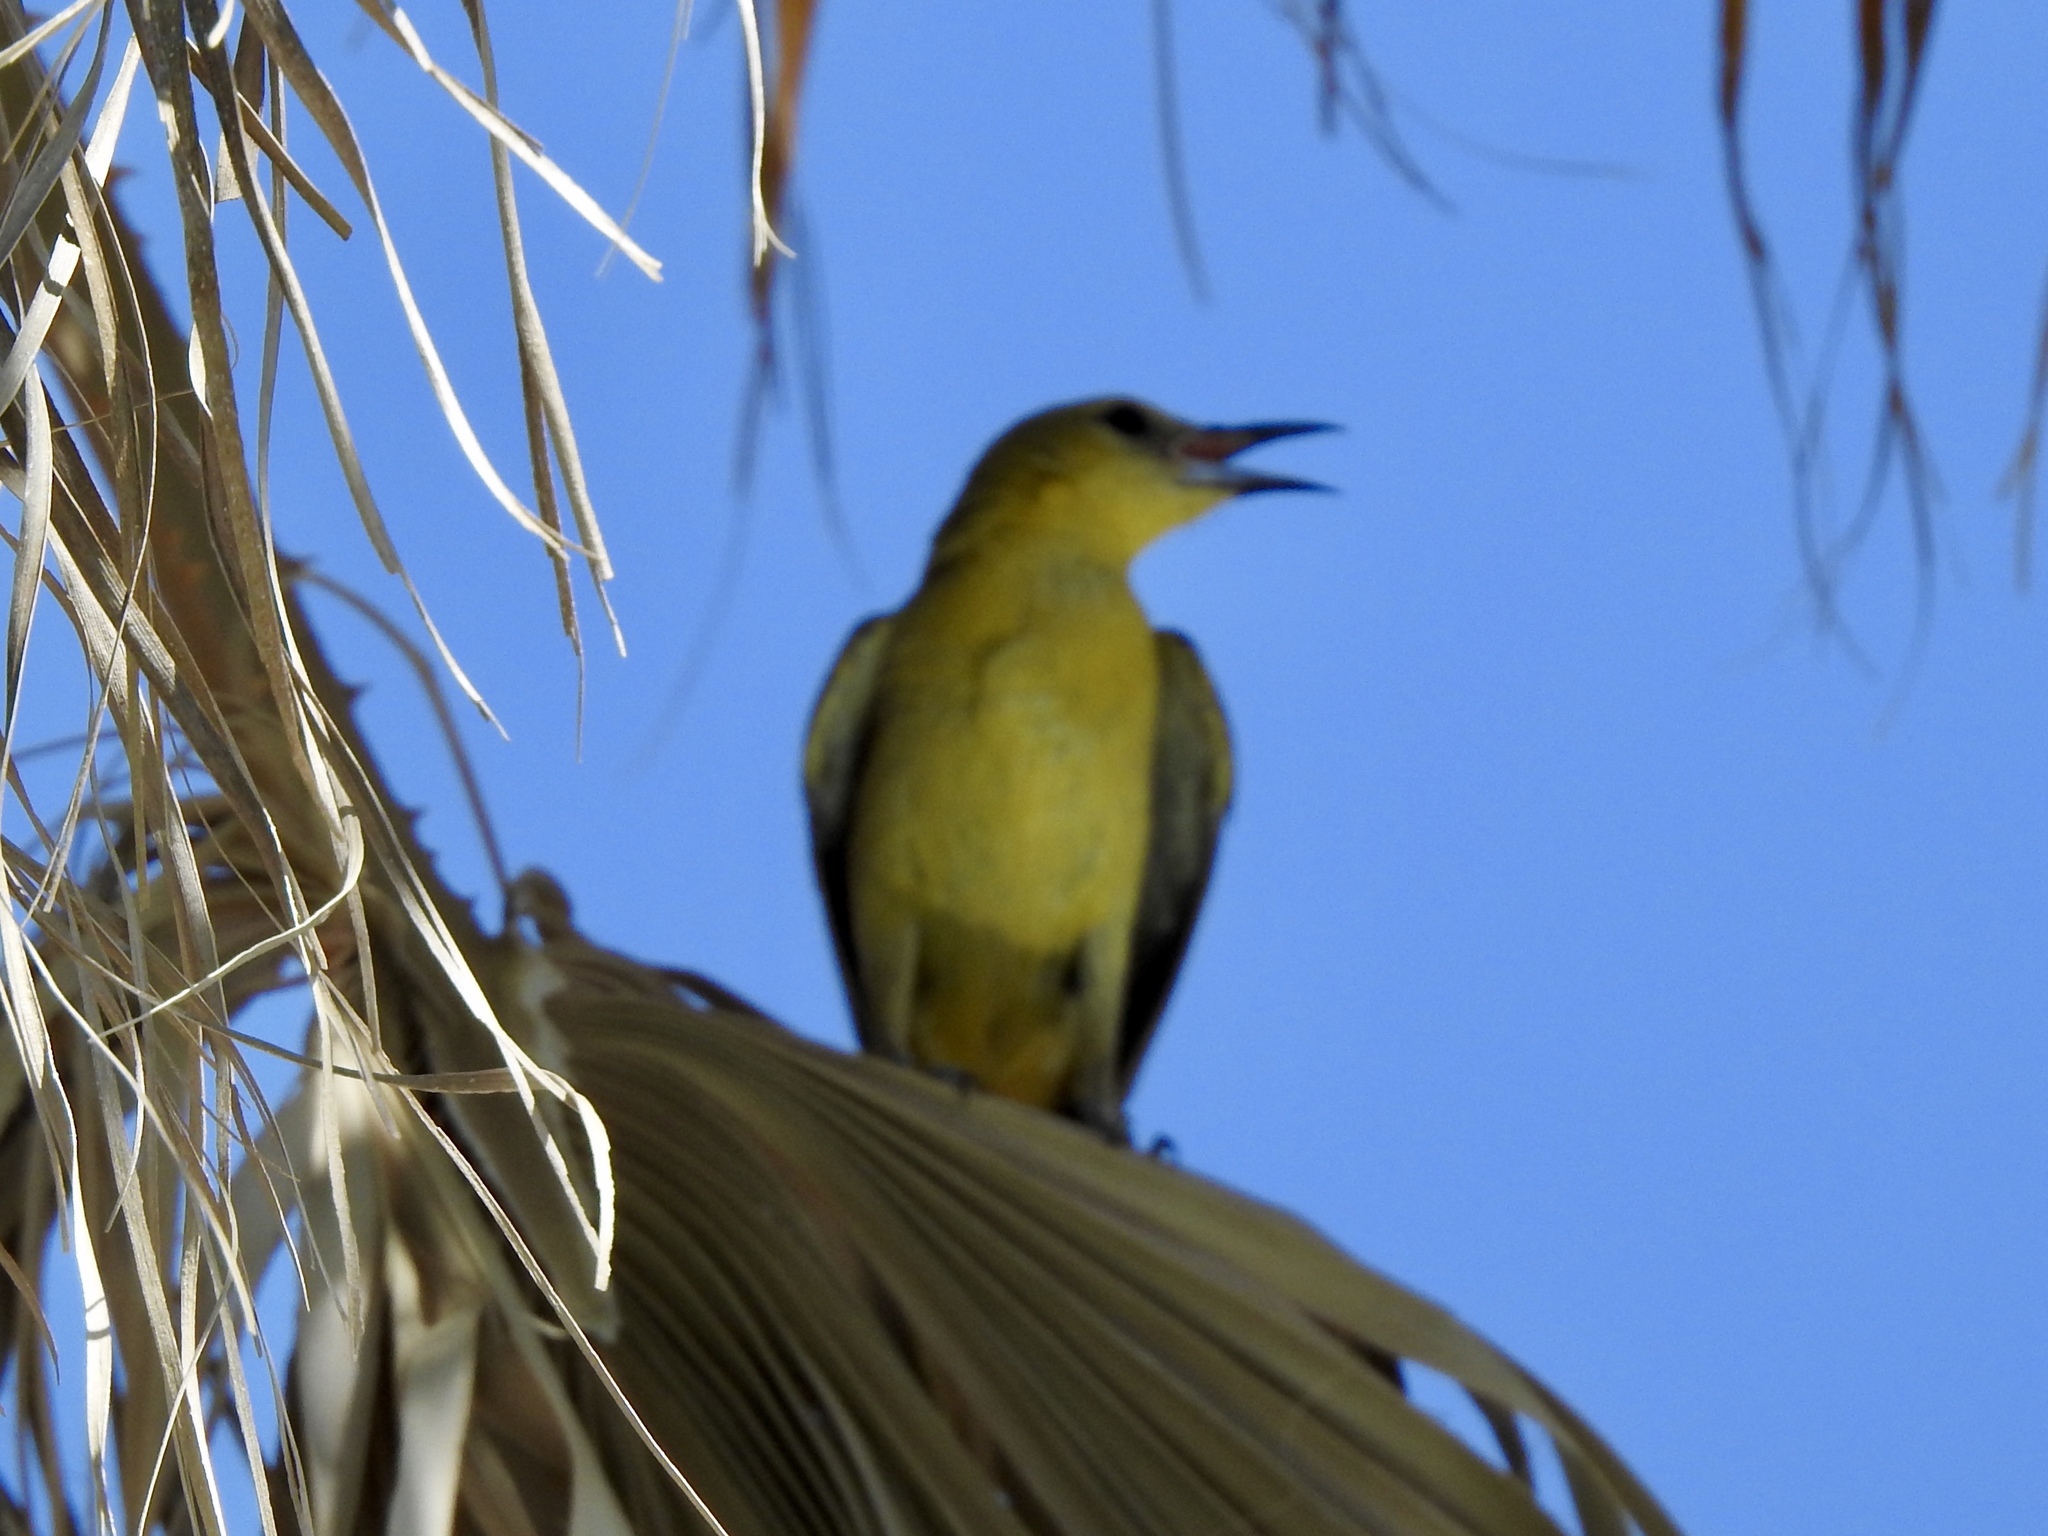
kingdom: Animalia
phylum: Chordata
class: Aves
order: Passeriformes
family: Icteridae
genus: Icterus
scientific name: Icterus cucullatus
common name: Hooded oriole
